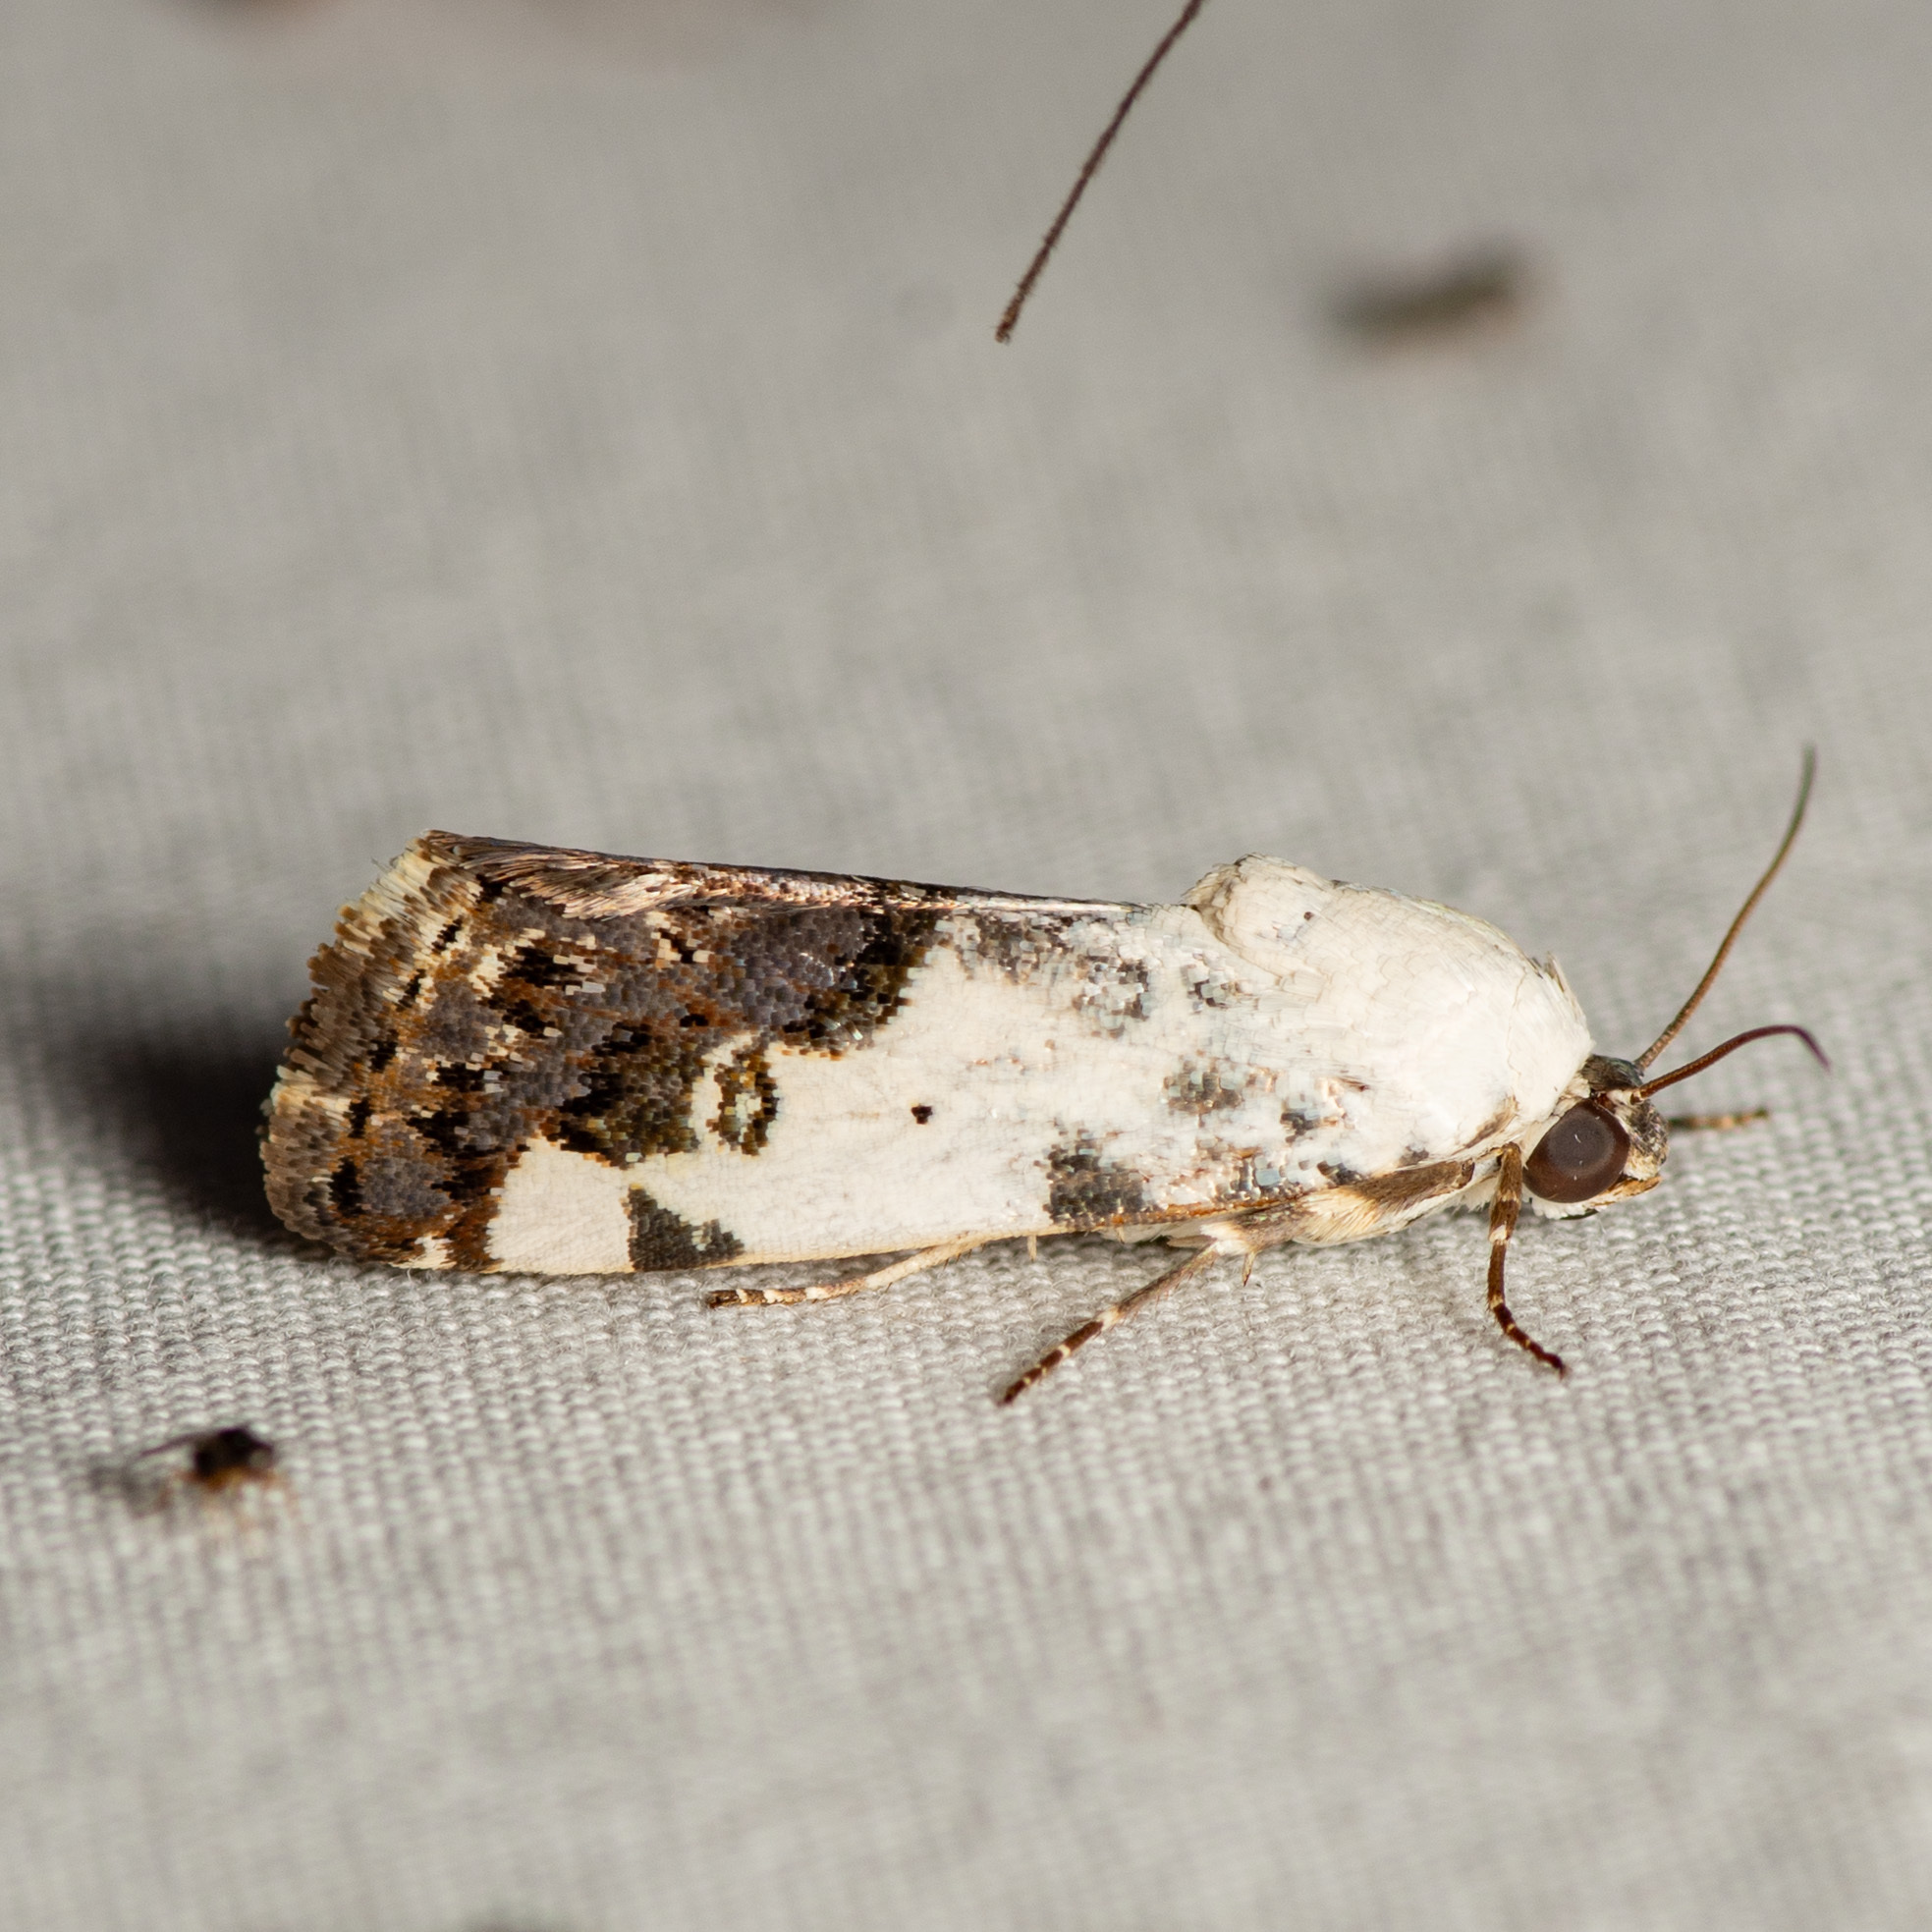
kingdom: Animalia
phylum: Arthropoda
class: Insecta
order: Lepidoptera
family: Noctuidae
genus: Acontia
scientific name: Acontia aprica
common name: Nun
